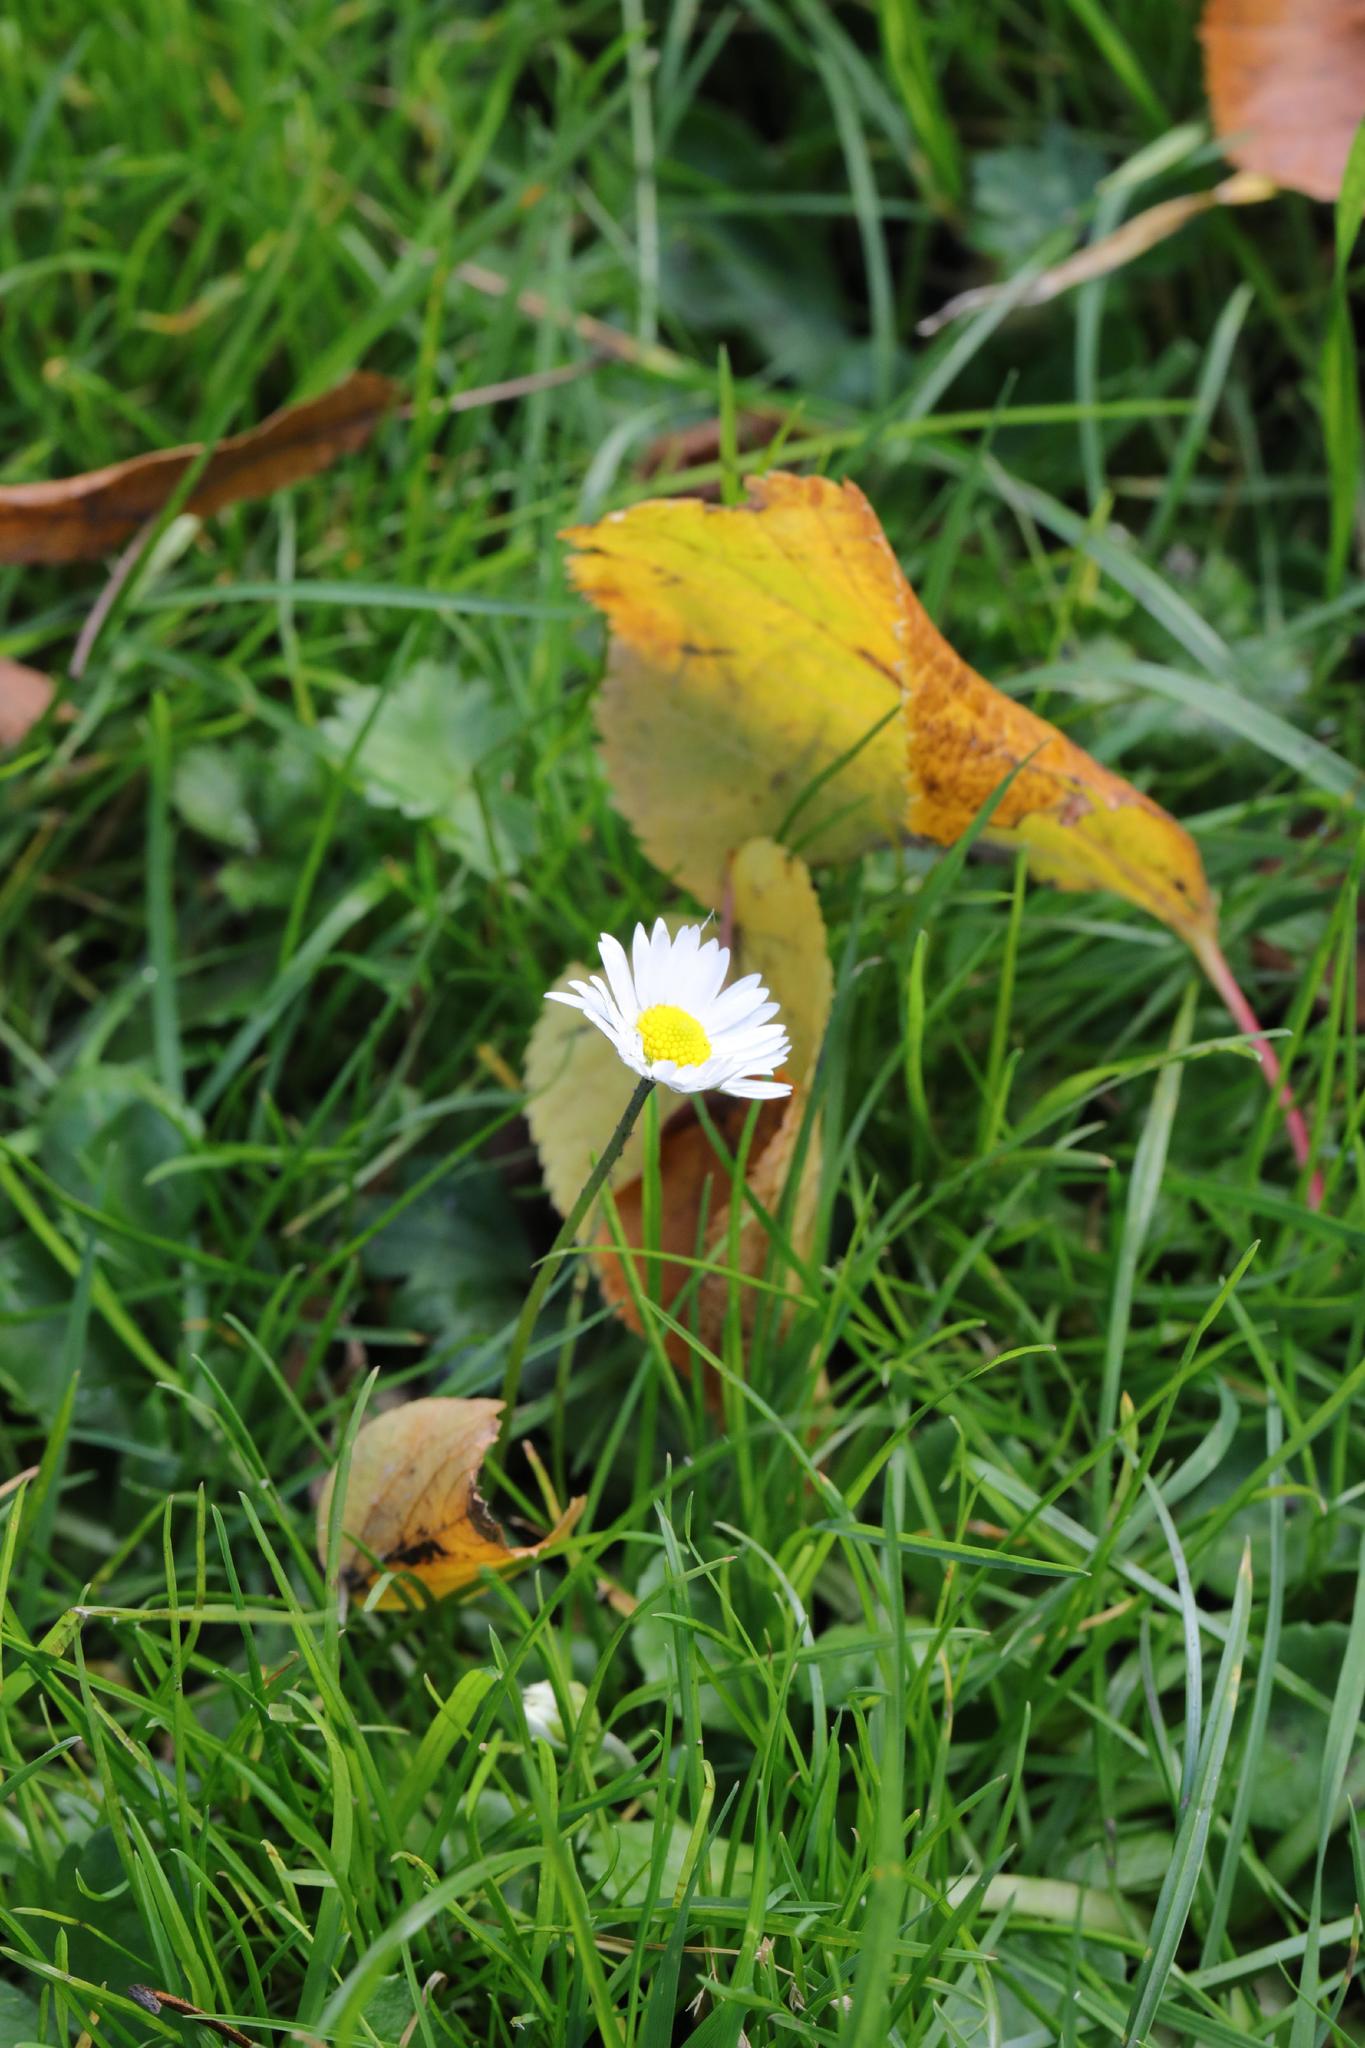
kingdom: Plantae
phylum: Tracheophyta
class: Magnoliopsida
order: Asterales
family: Asteraceae
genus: Bellis
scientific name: Bellis perennis
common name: Lawndaisy
